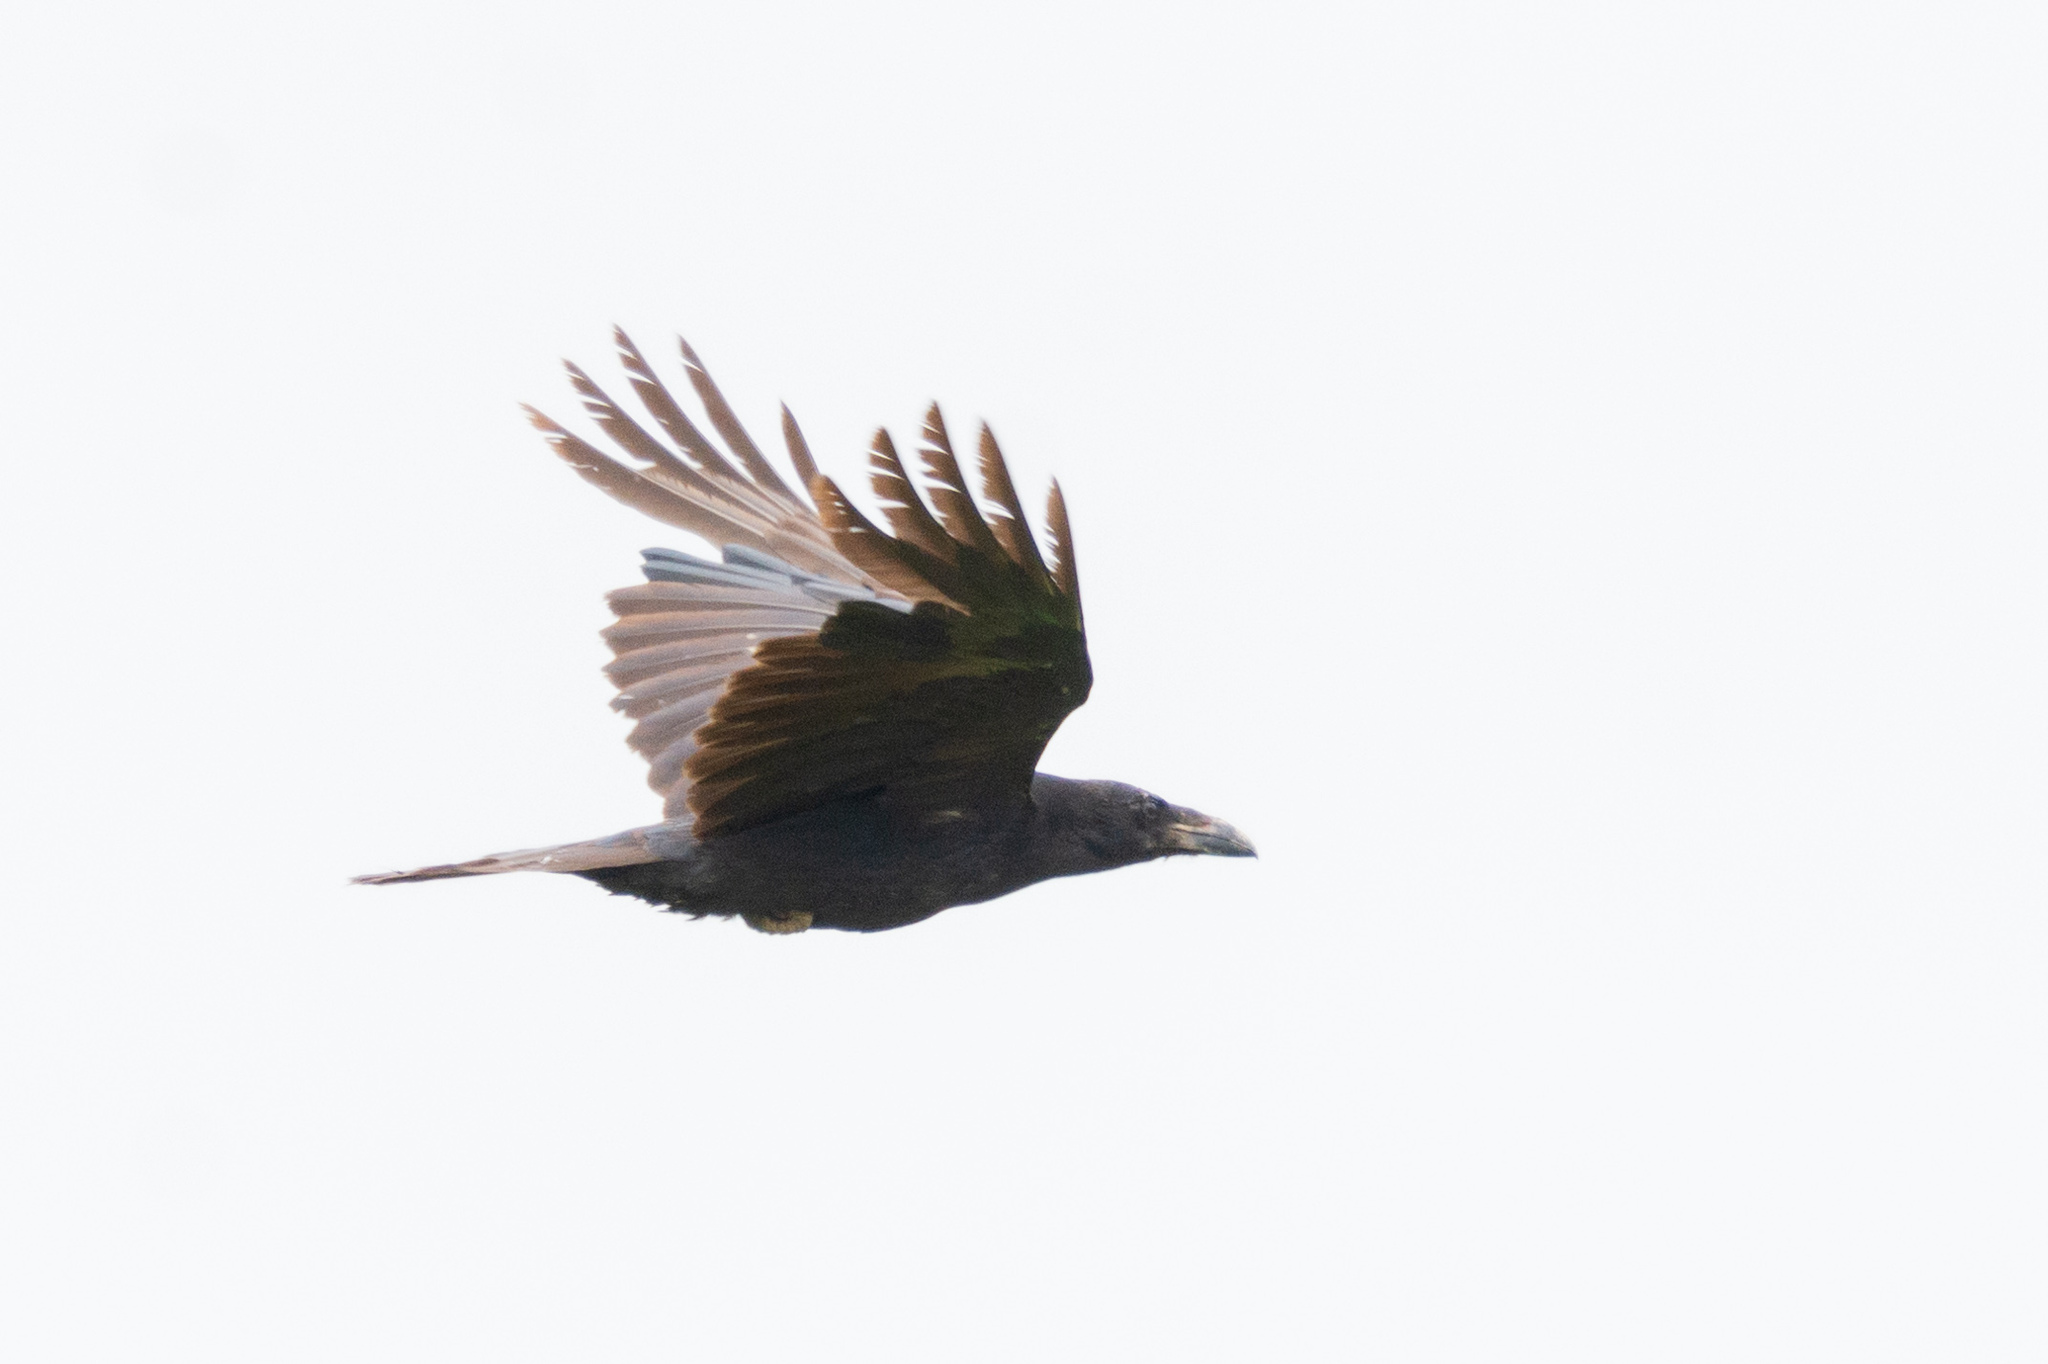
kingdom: Animalia
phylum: Chordata
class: Aves
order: Passeriformes
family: Corvidae
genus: Corvus
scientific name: Corvus corax
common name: Common raven
